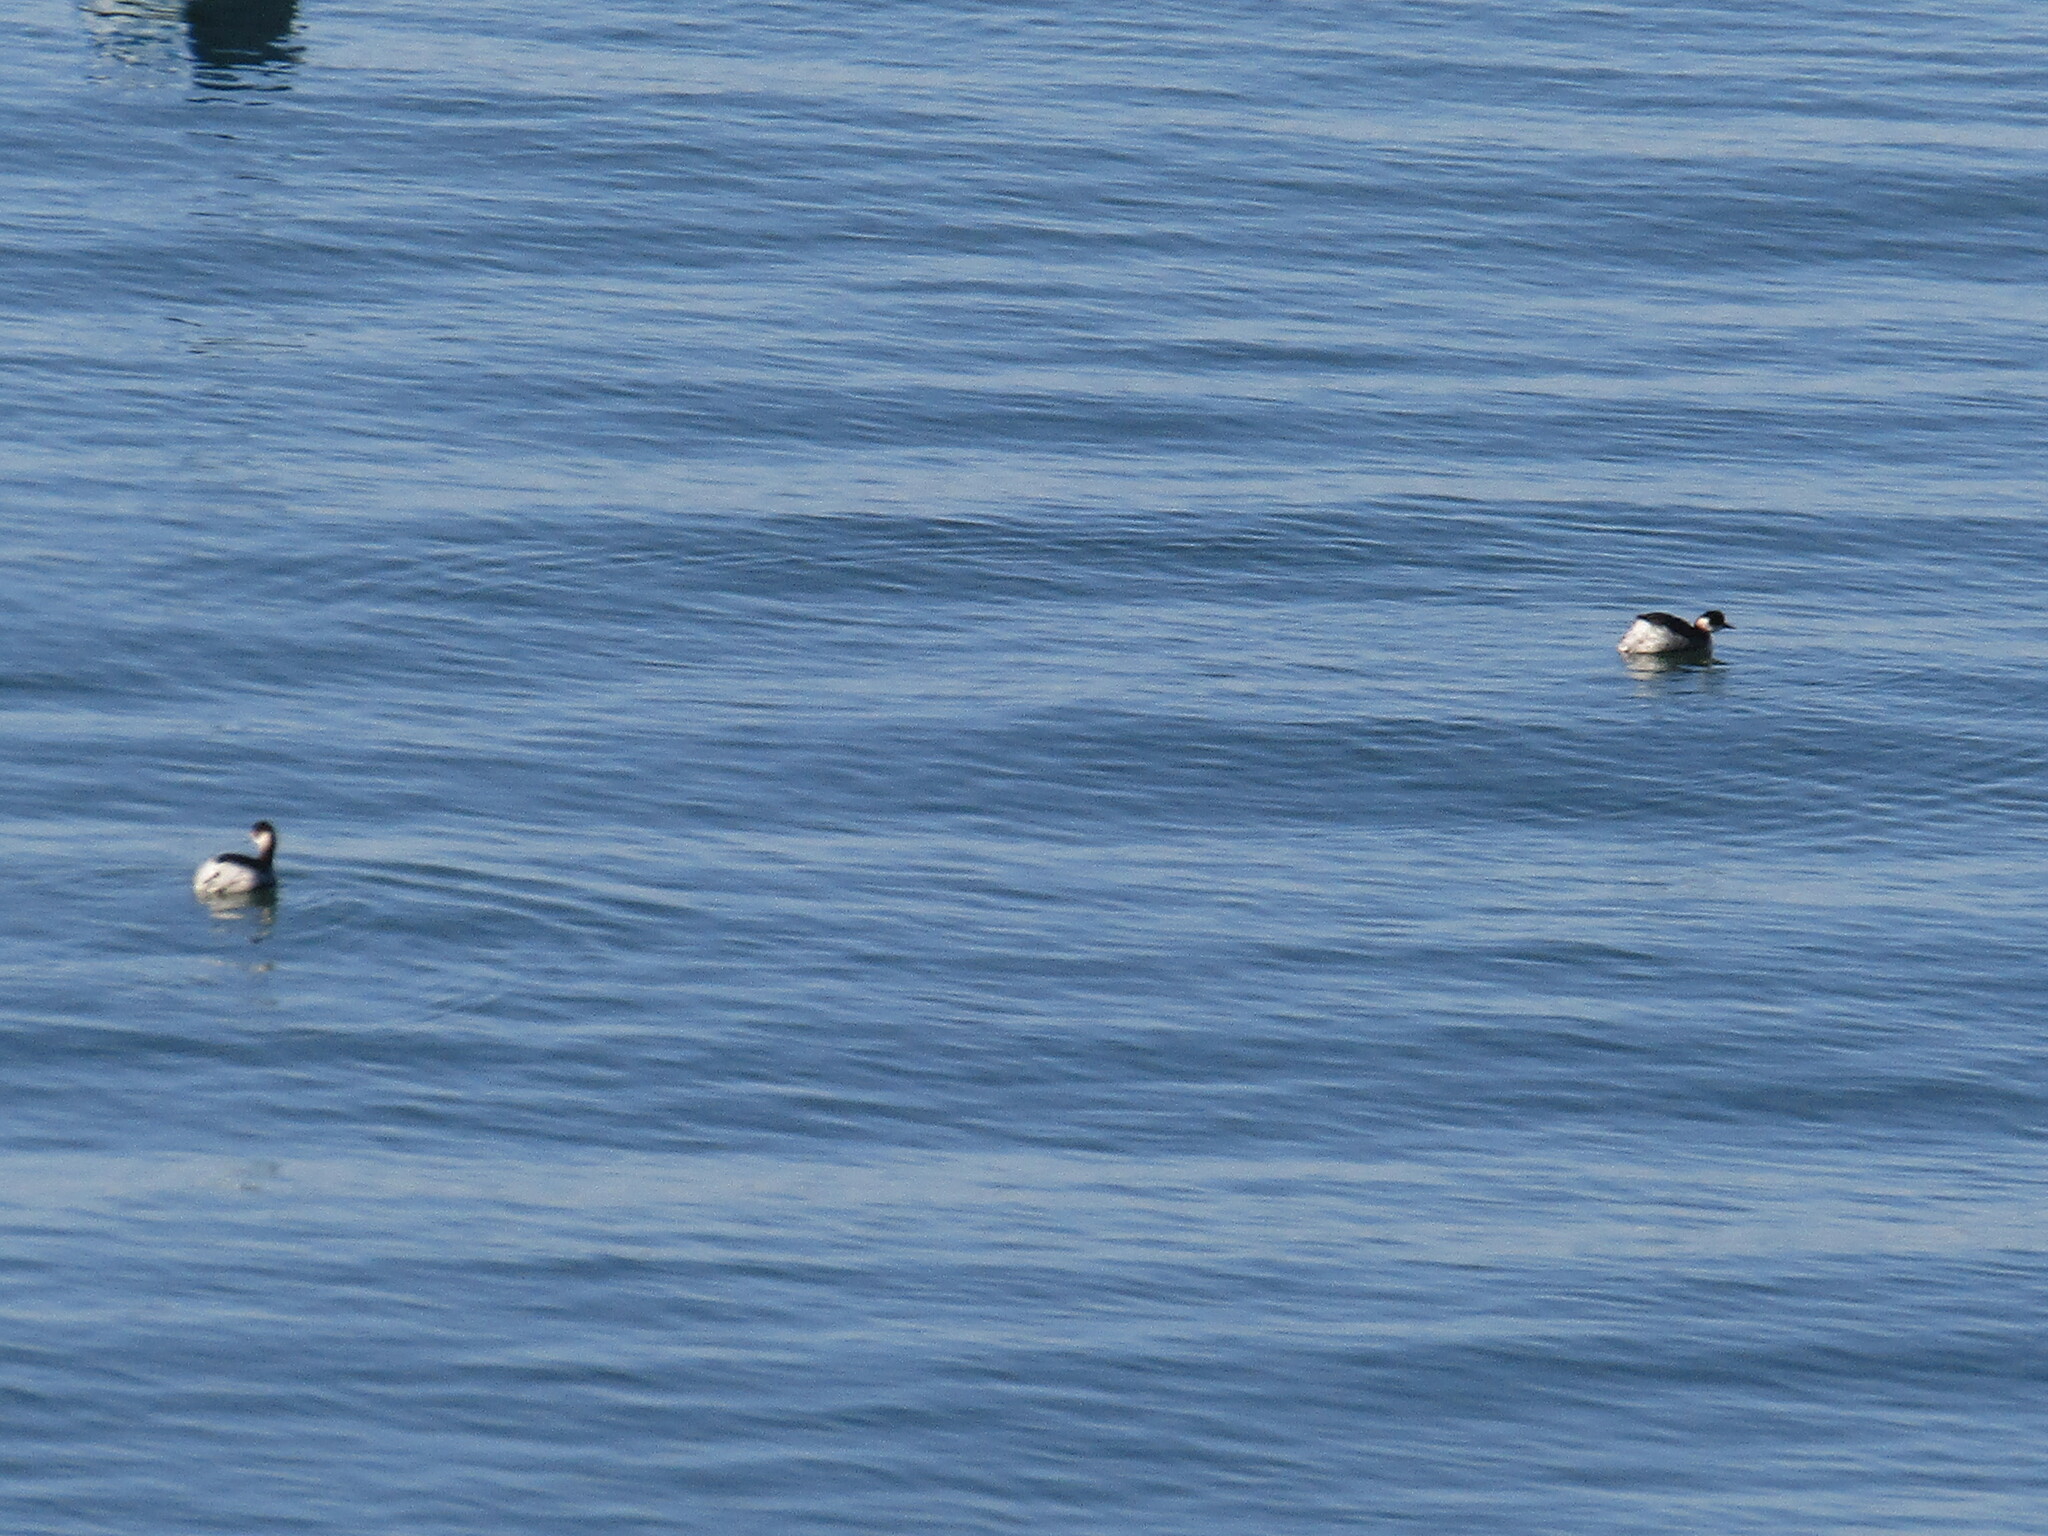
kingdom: Animalia
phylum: Chordata
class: Aves
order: Podicipediformes
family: Podicipedidae
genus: Podiceps
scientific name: Podiceps nigricollis
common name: Black-necked grebe
